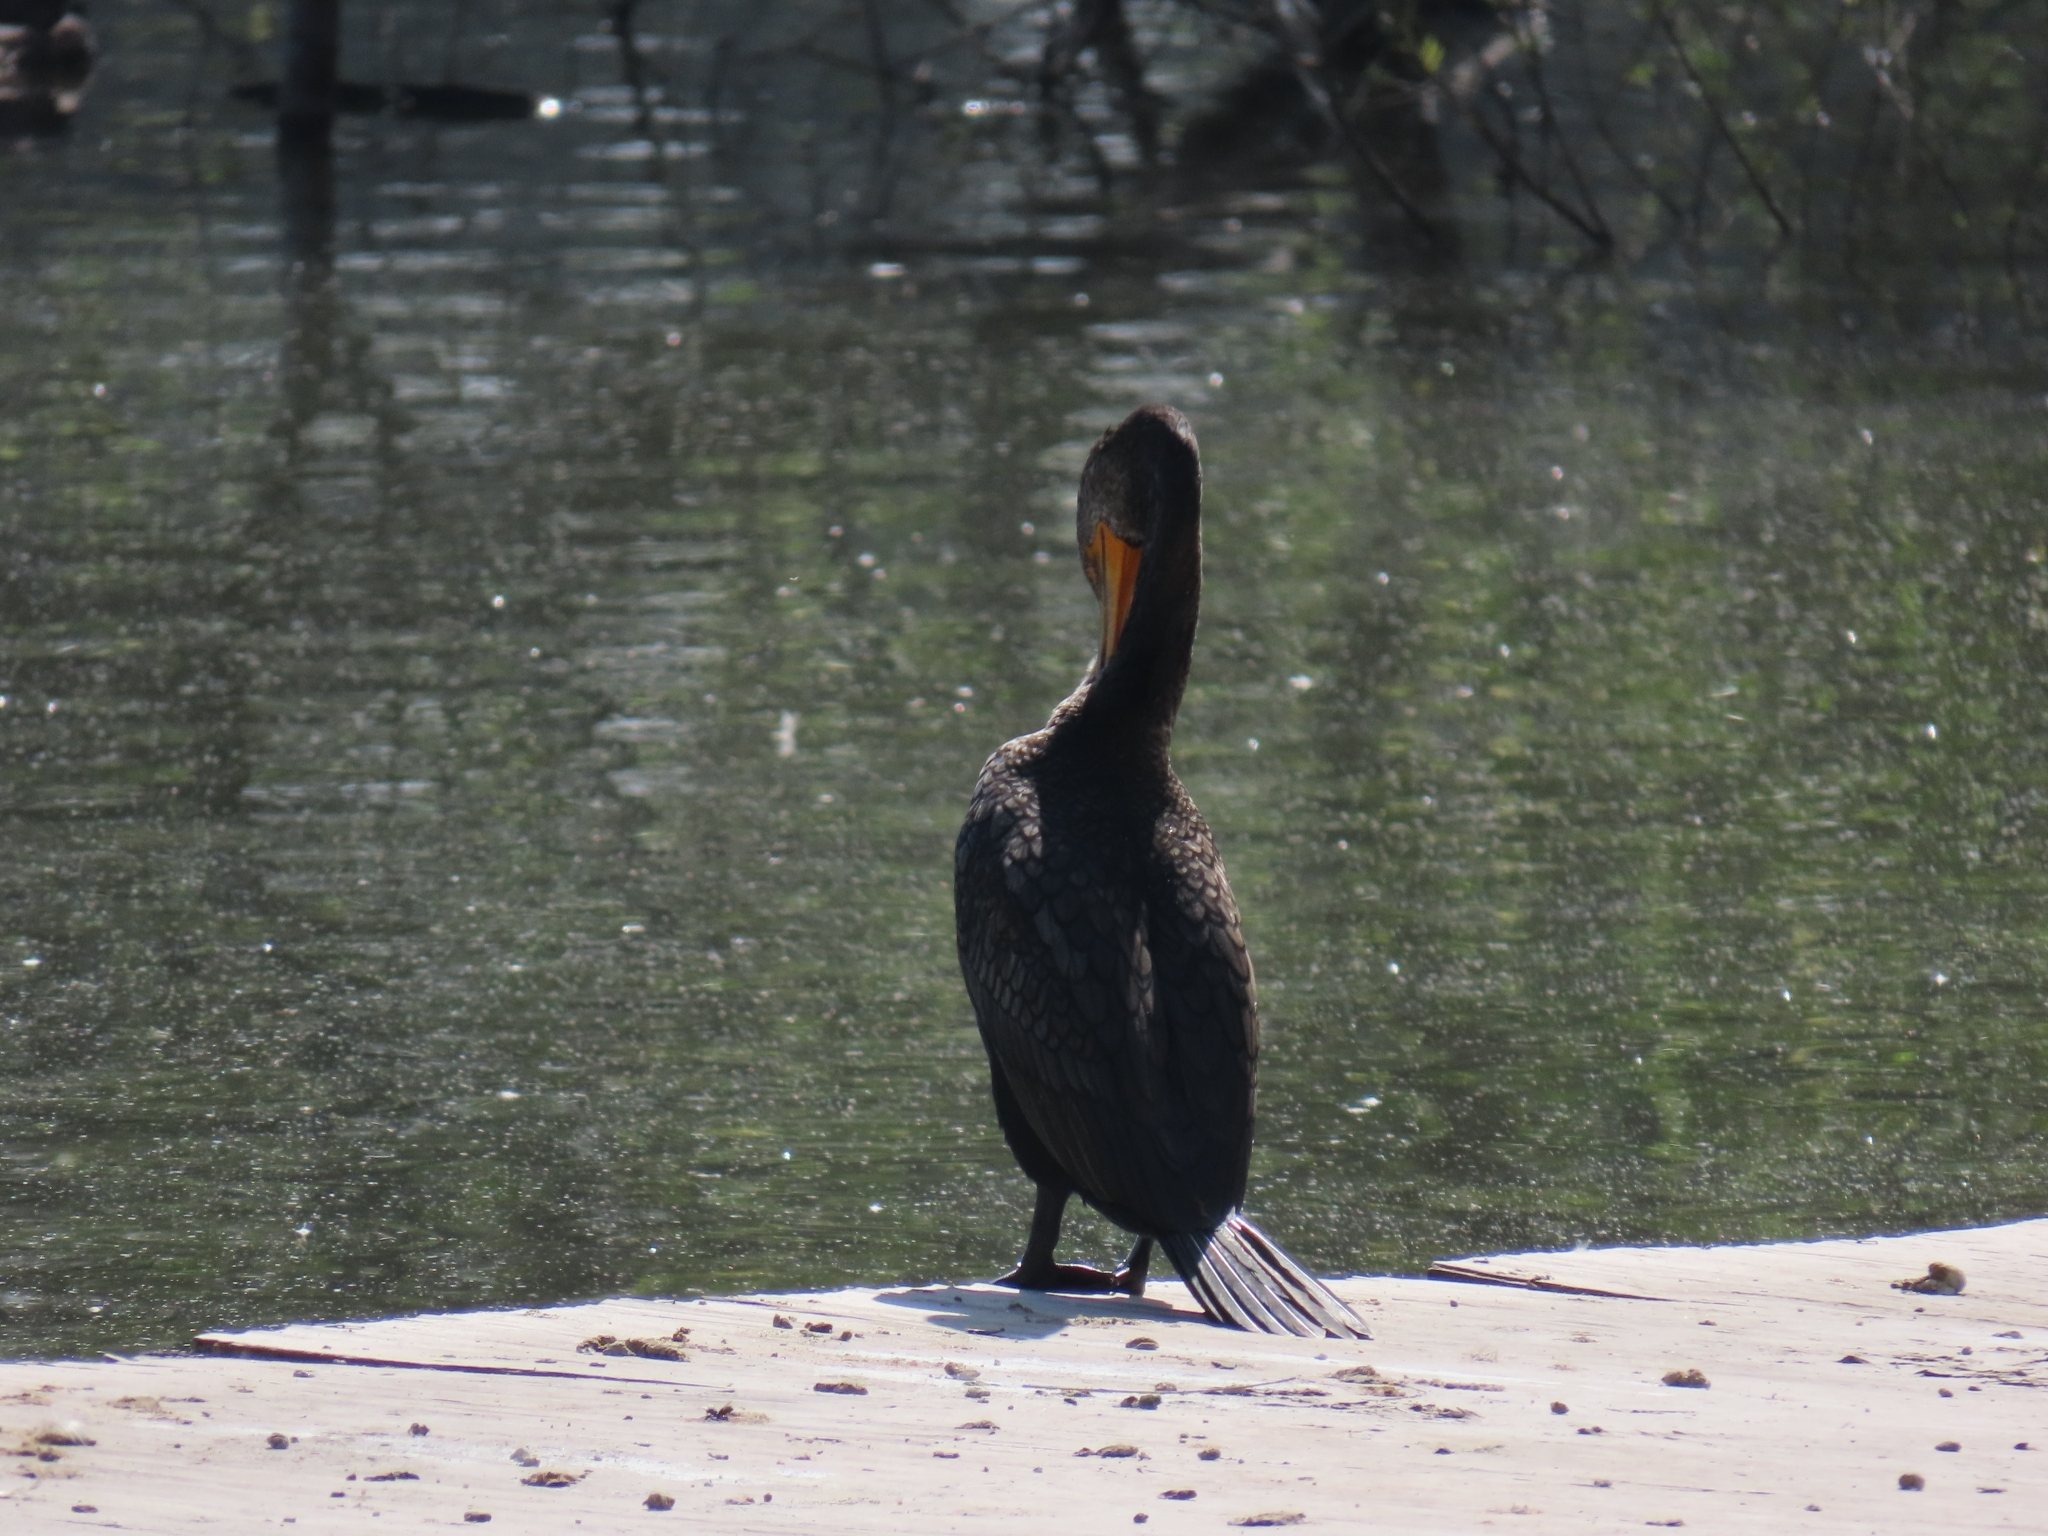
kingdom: Animalia
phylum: Chordata
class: Aves
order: Suliformes
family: Phalacrocoracidae
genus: Phalacrocorax
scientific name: Phalacrocorax auritus
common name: Double-crested cormorant
